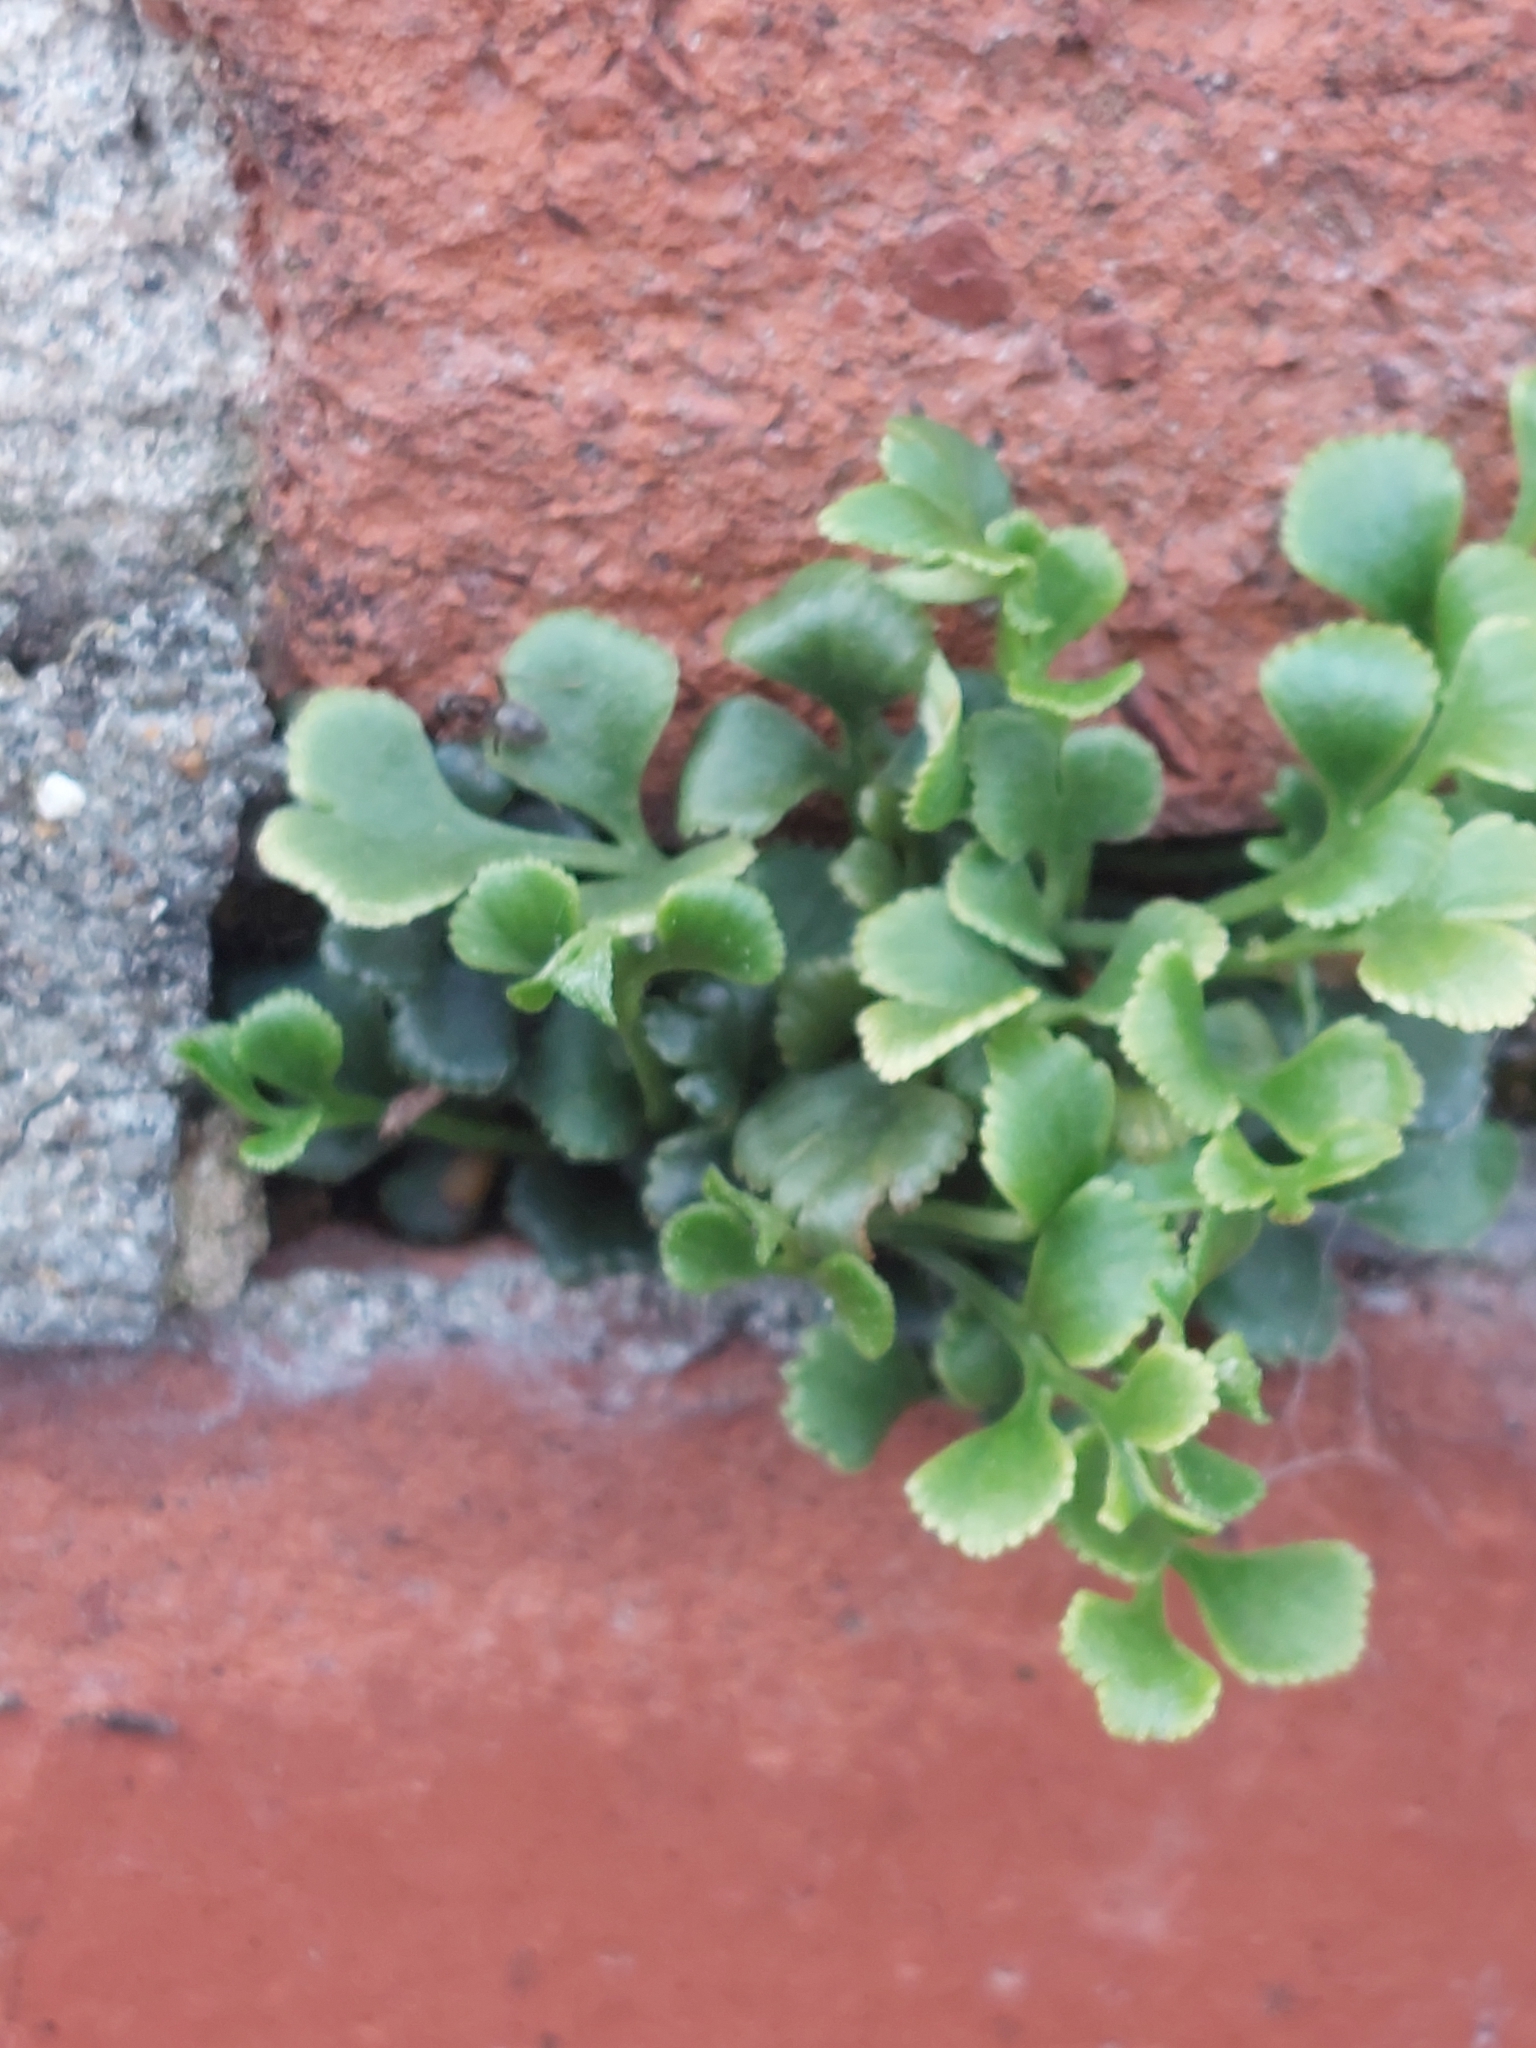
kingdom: Plantae
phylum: Tracheophyta
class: Polypodiopsida
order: Polypodiales
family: Aspleniaceae
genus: Asplenium
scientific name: Asplenium ruta-muraria
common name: Wall-rue
